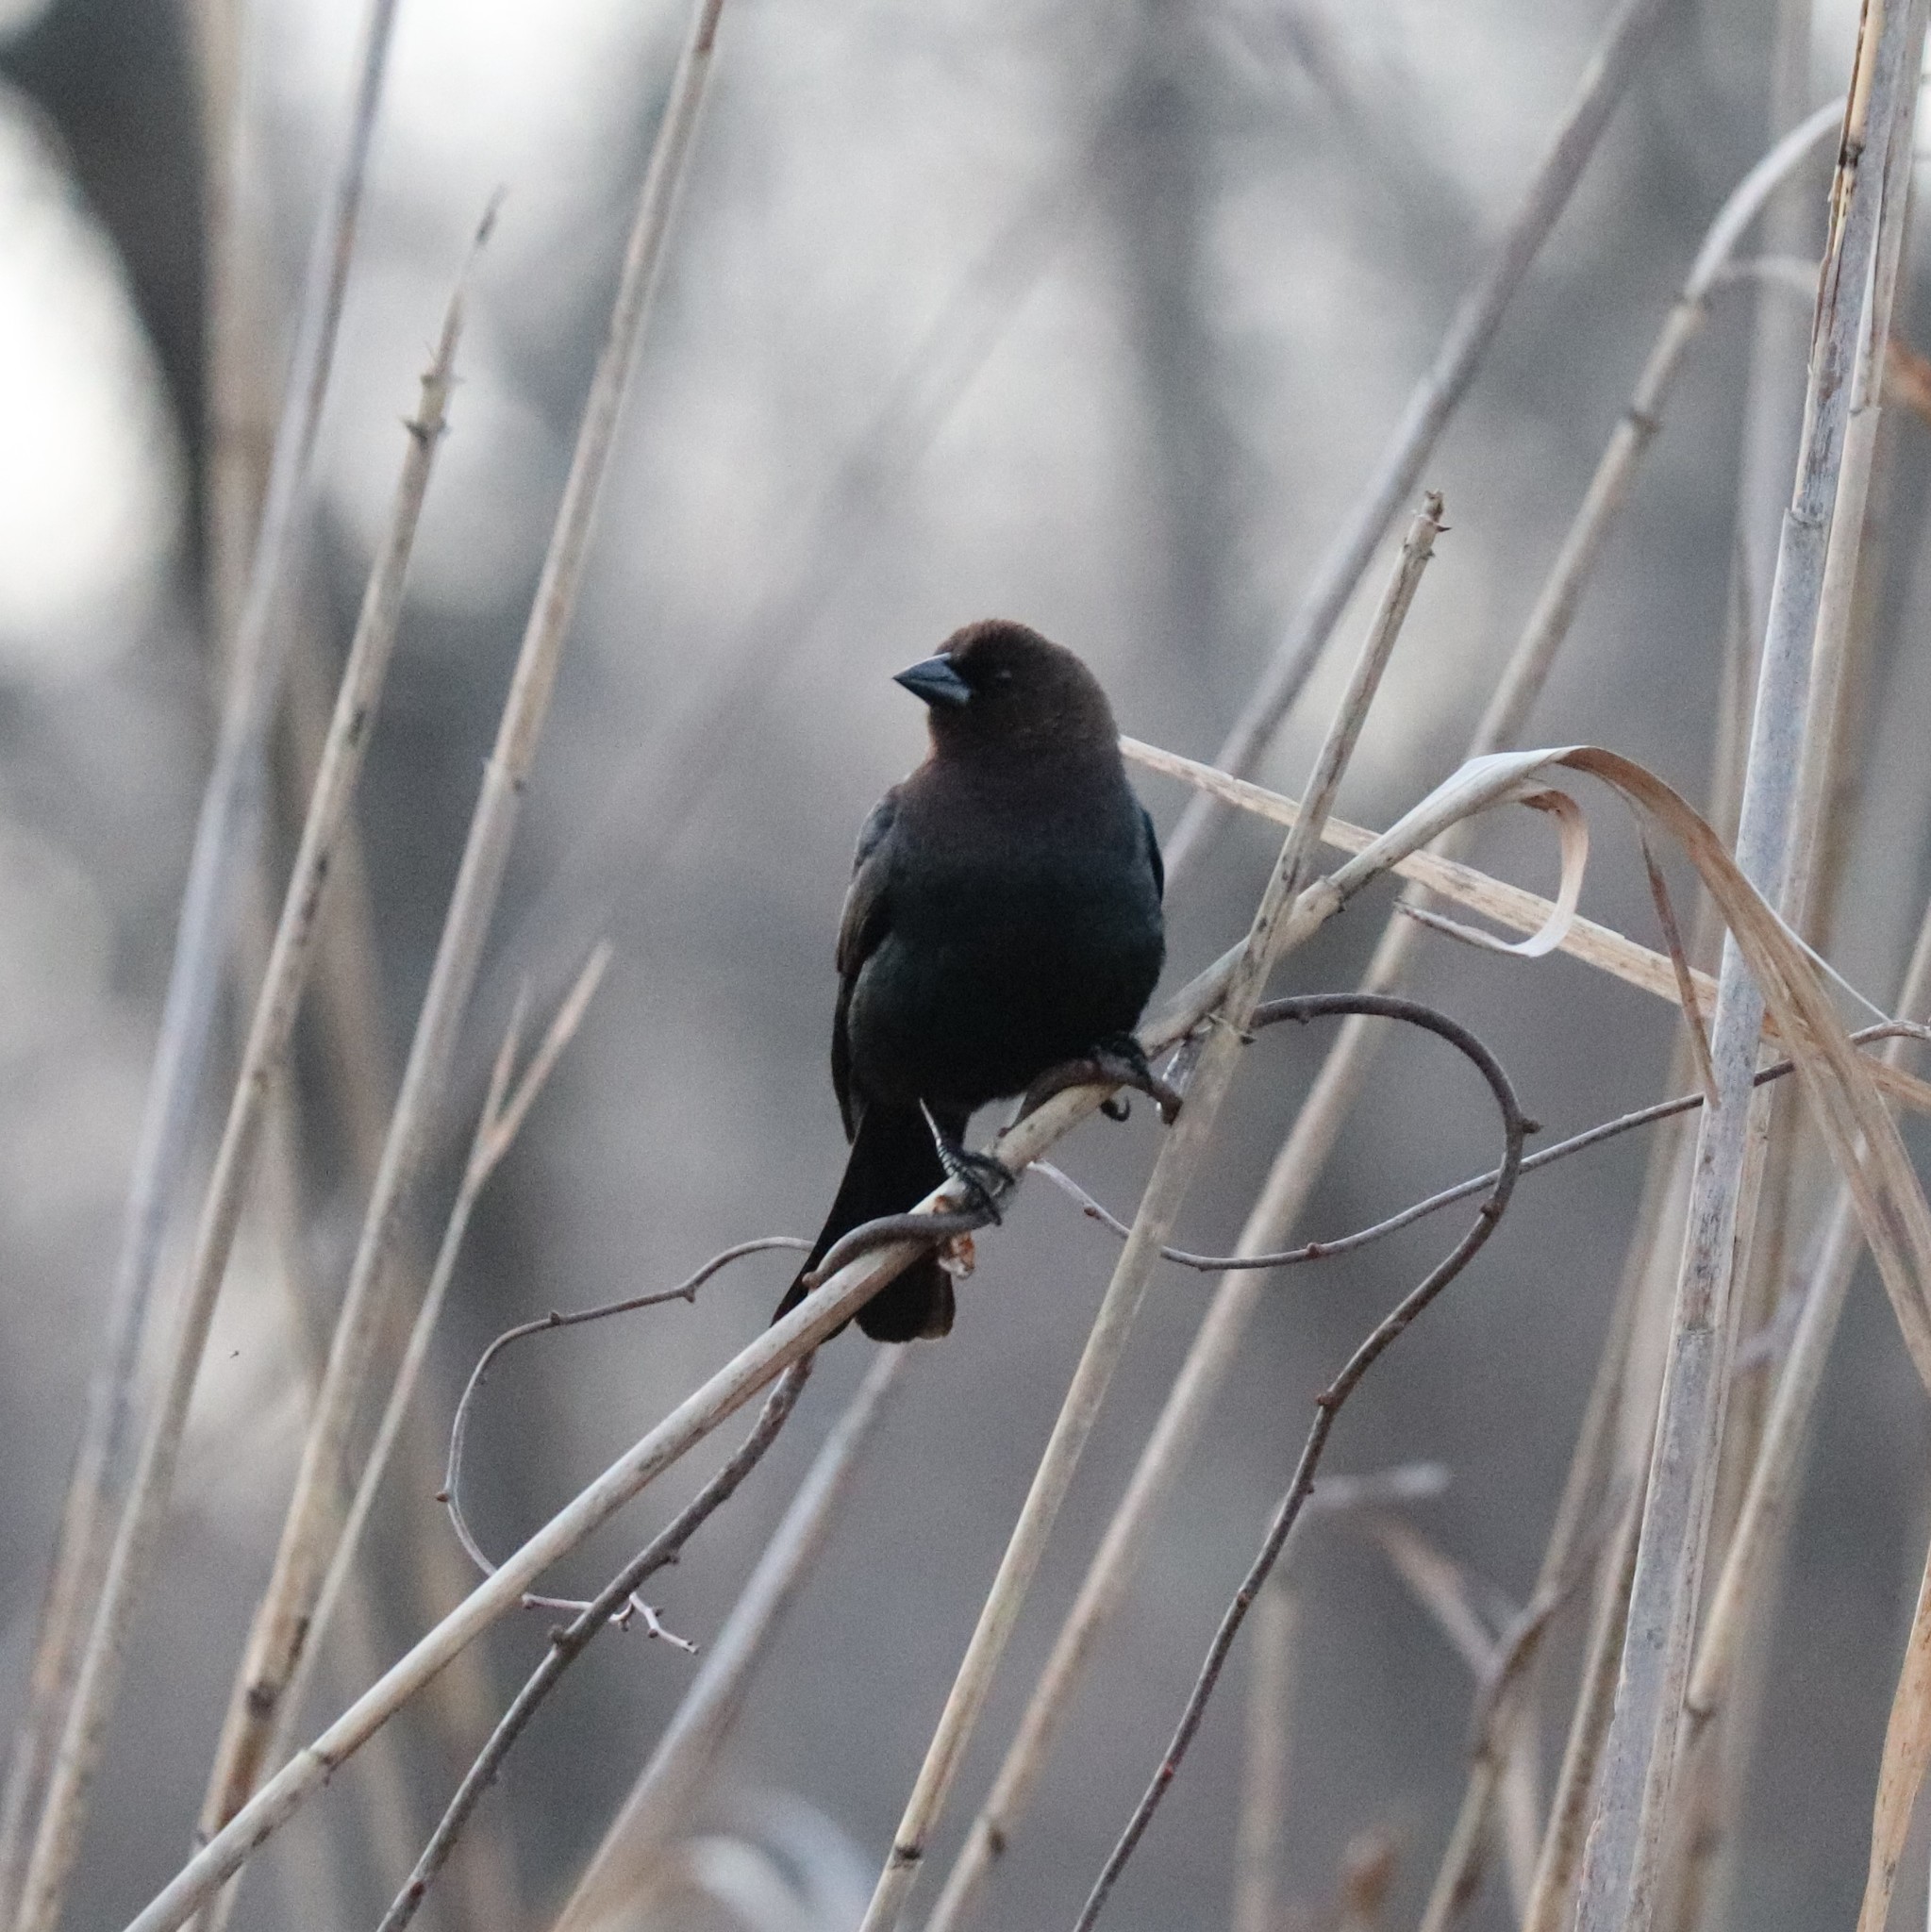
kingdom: Animalia
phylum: Chordata
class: Aves
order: Passeriformes
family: Icteridae
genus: Molothrus
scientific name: Molothrus ater
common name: Brown-headed cowbird
